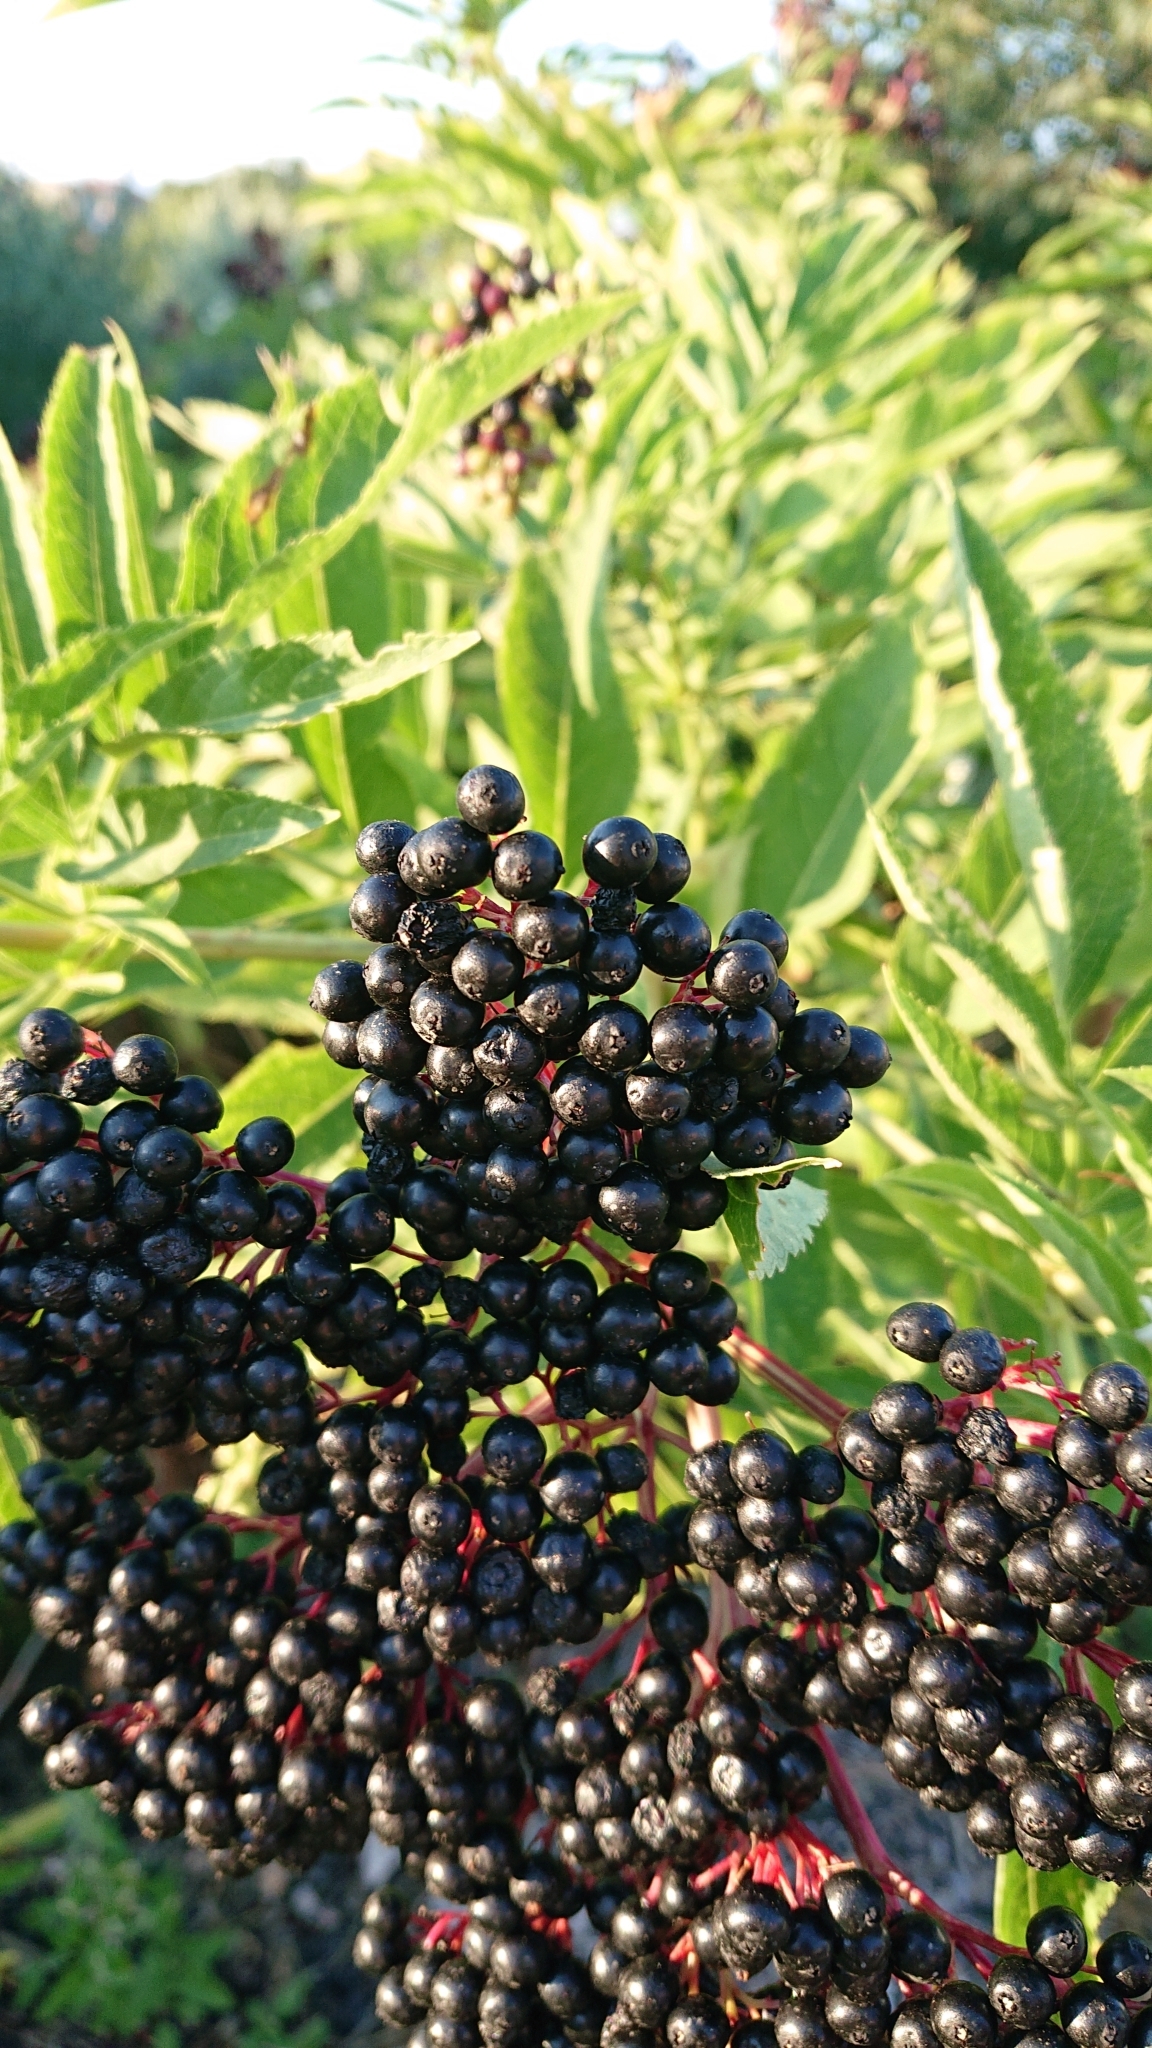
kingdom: Plantae
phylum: Tracheophyta
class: Magnoliopsida
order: Dipsacales
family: Viburnaceae
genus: Sambucus
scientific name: Sambucus ebulus
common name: Dwarf elder
